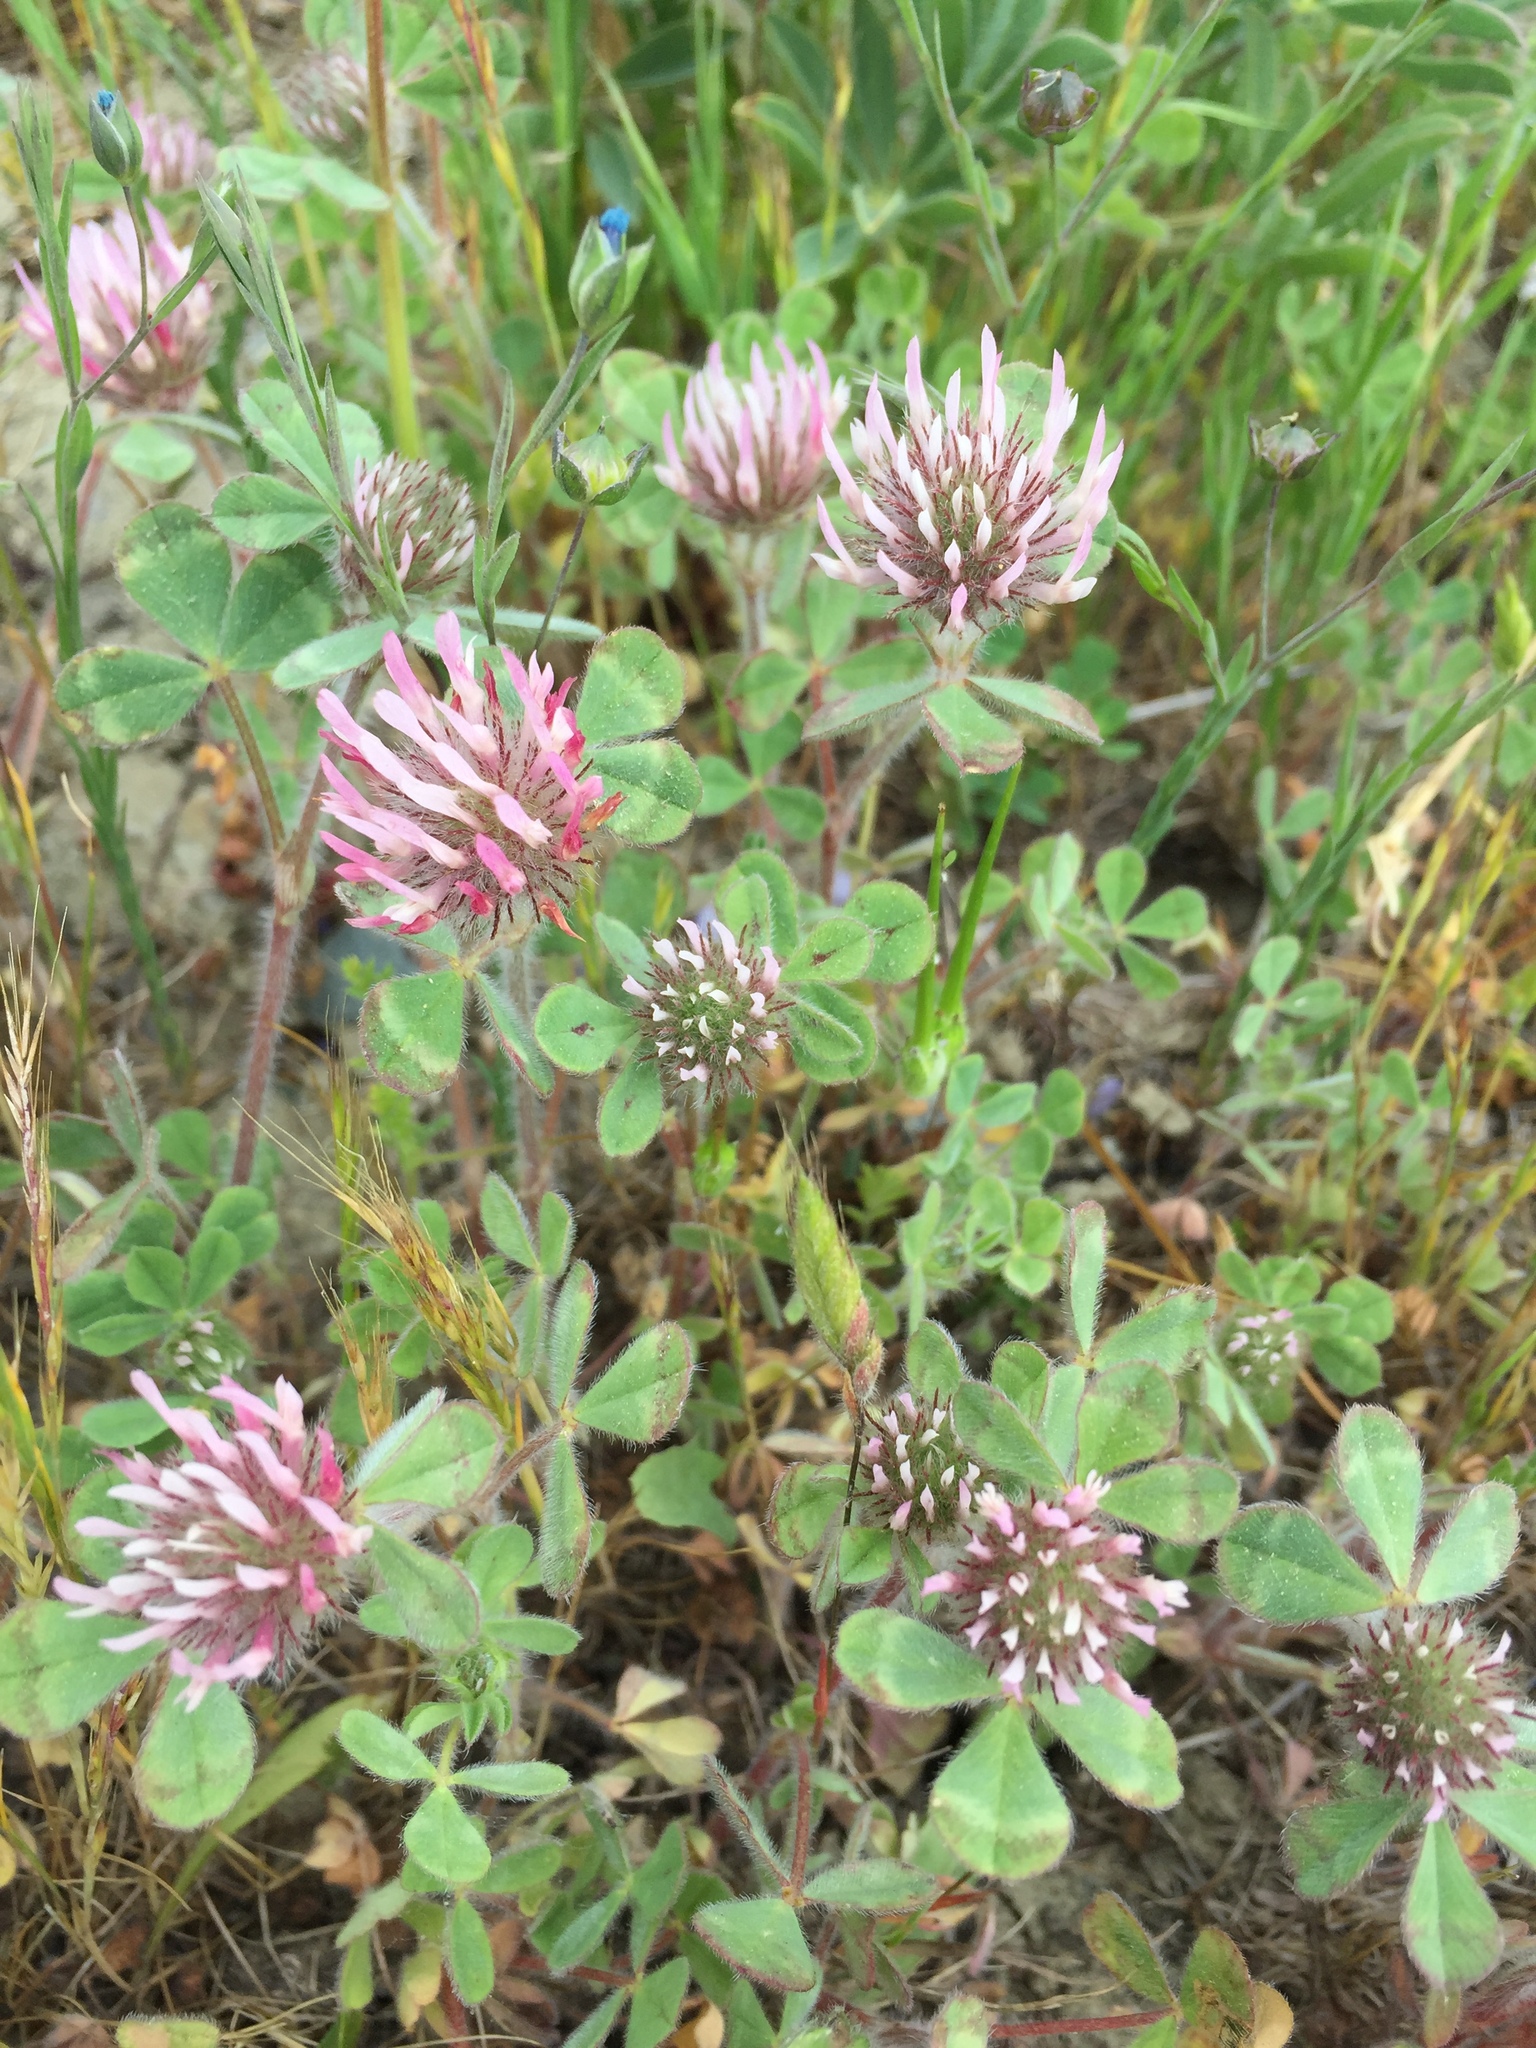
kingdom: Plantae
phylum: Tracheophyta
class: Magnoliopsida
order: Fabales
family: Fabaceae
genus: Trifolium
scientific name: Trifolium hirtum
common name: Rose clover
